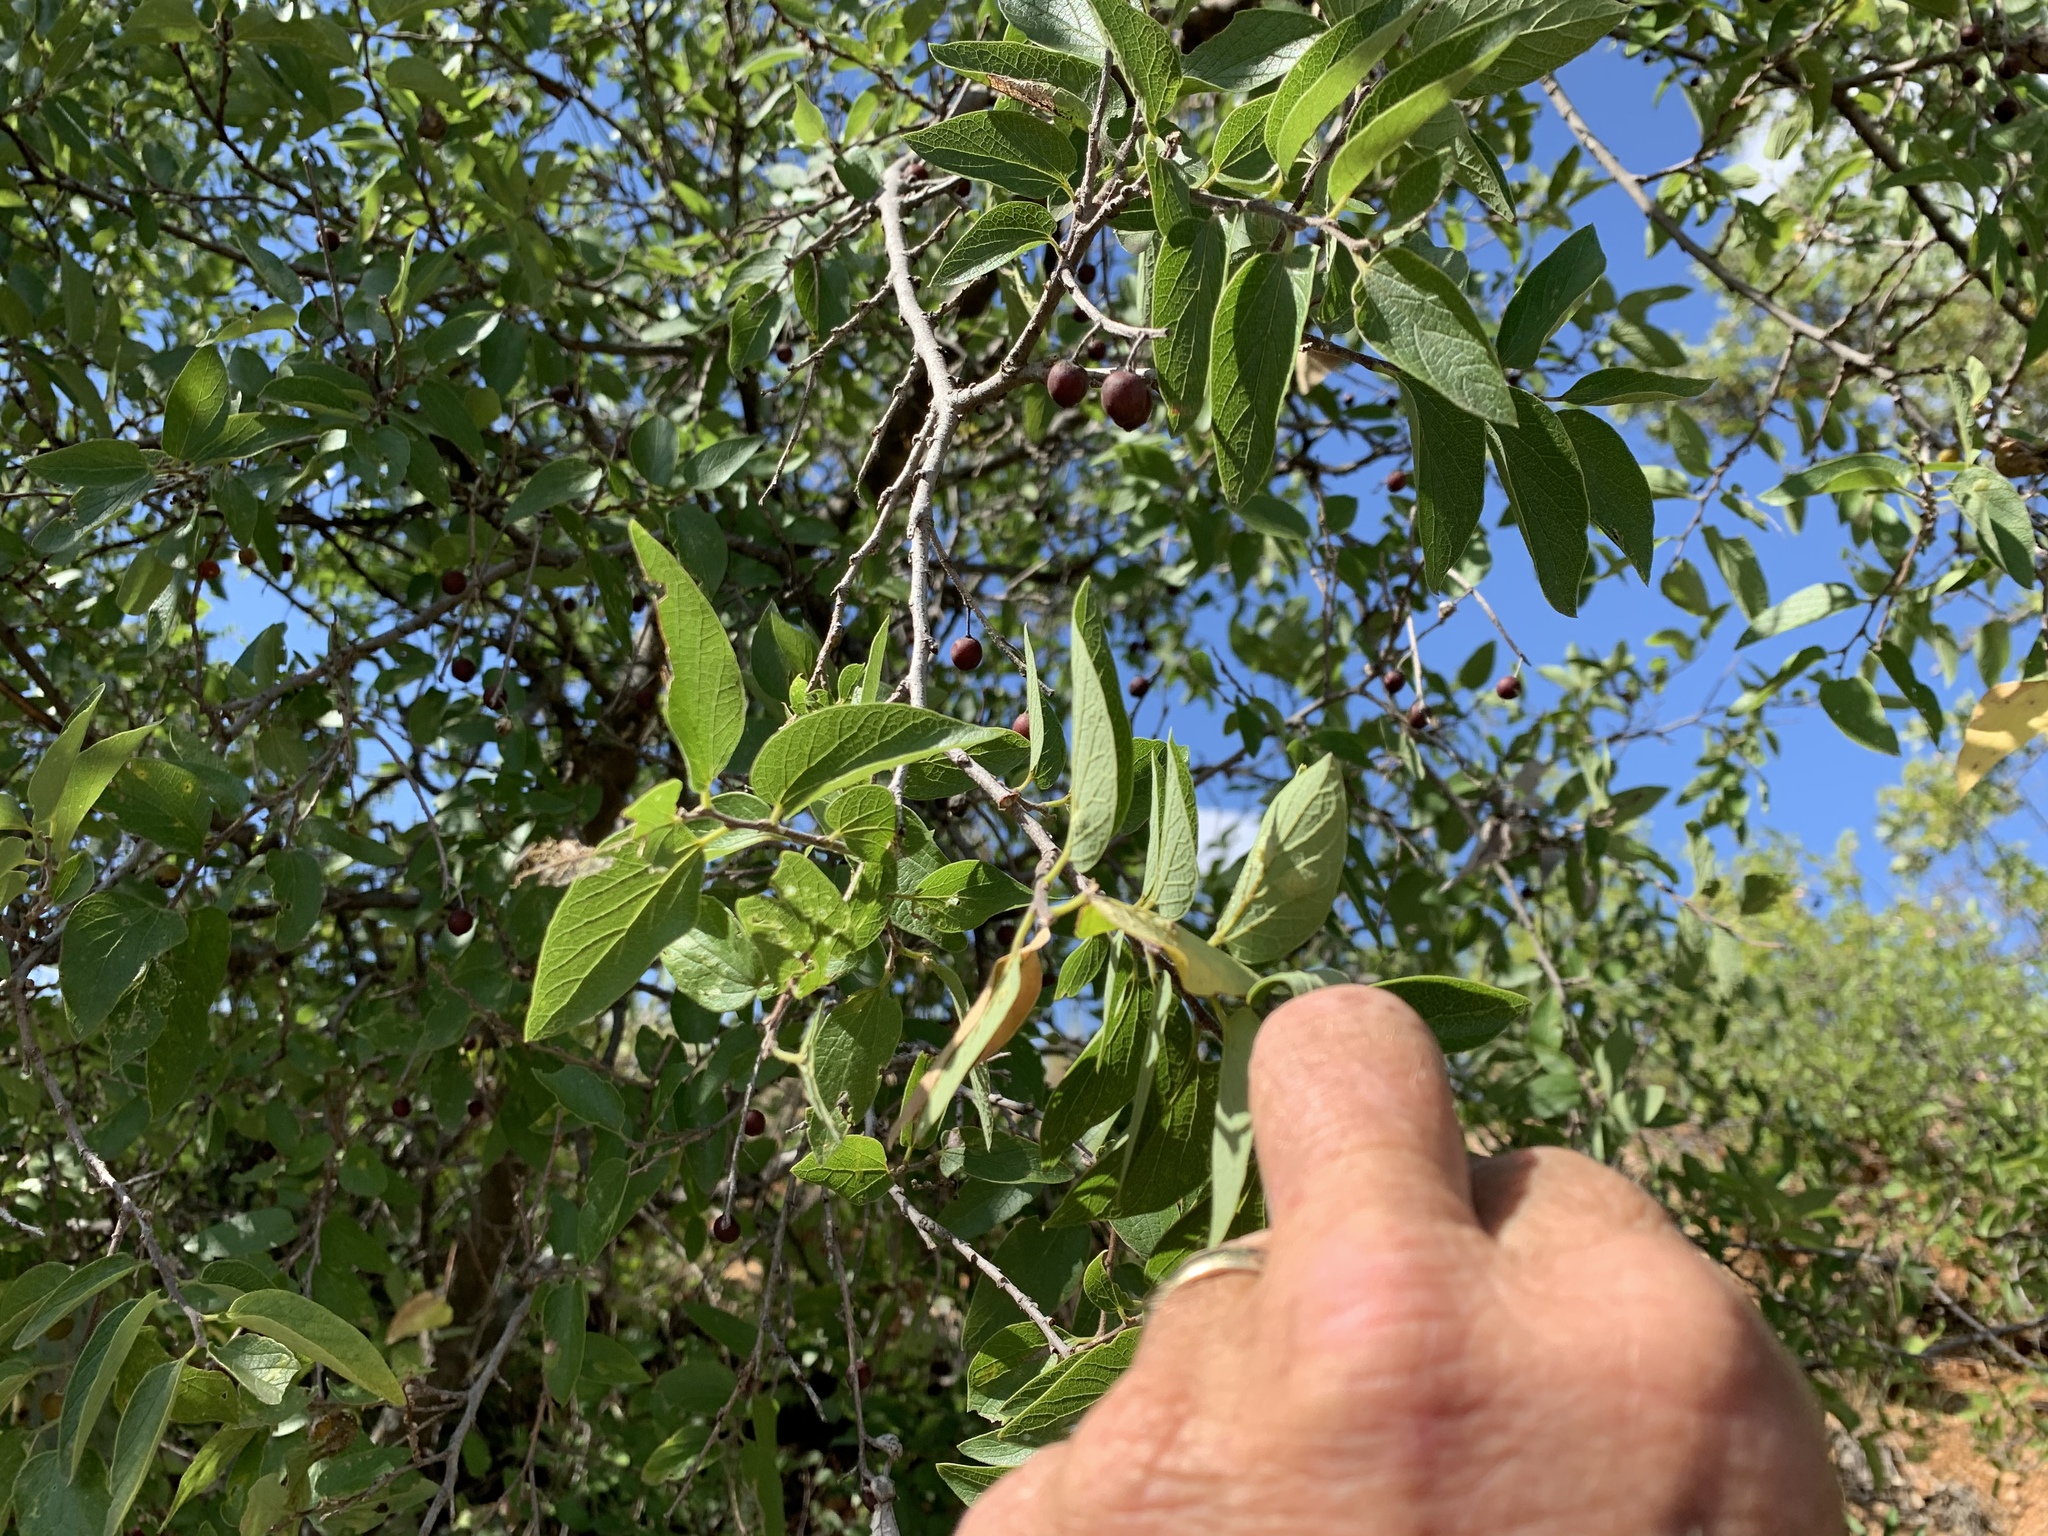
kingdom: Plantae
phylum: Tracheophyta
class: Magnoliopsida
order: Rosales
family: Cannabaceae
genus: Celtis
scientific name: Celtis reticulata
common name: Netleaf hackberry
